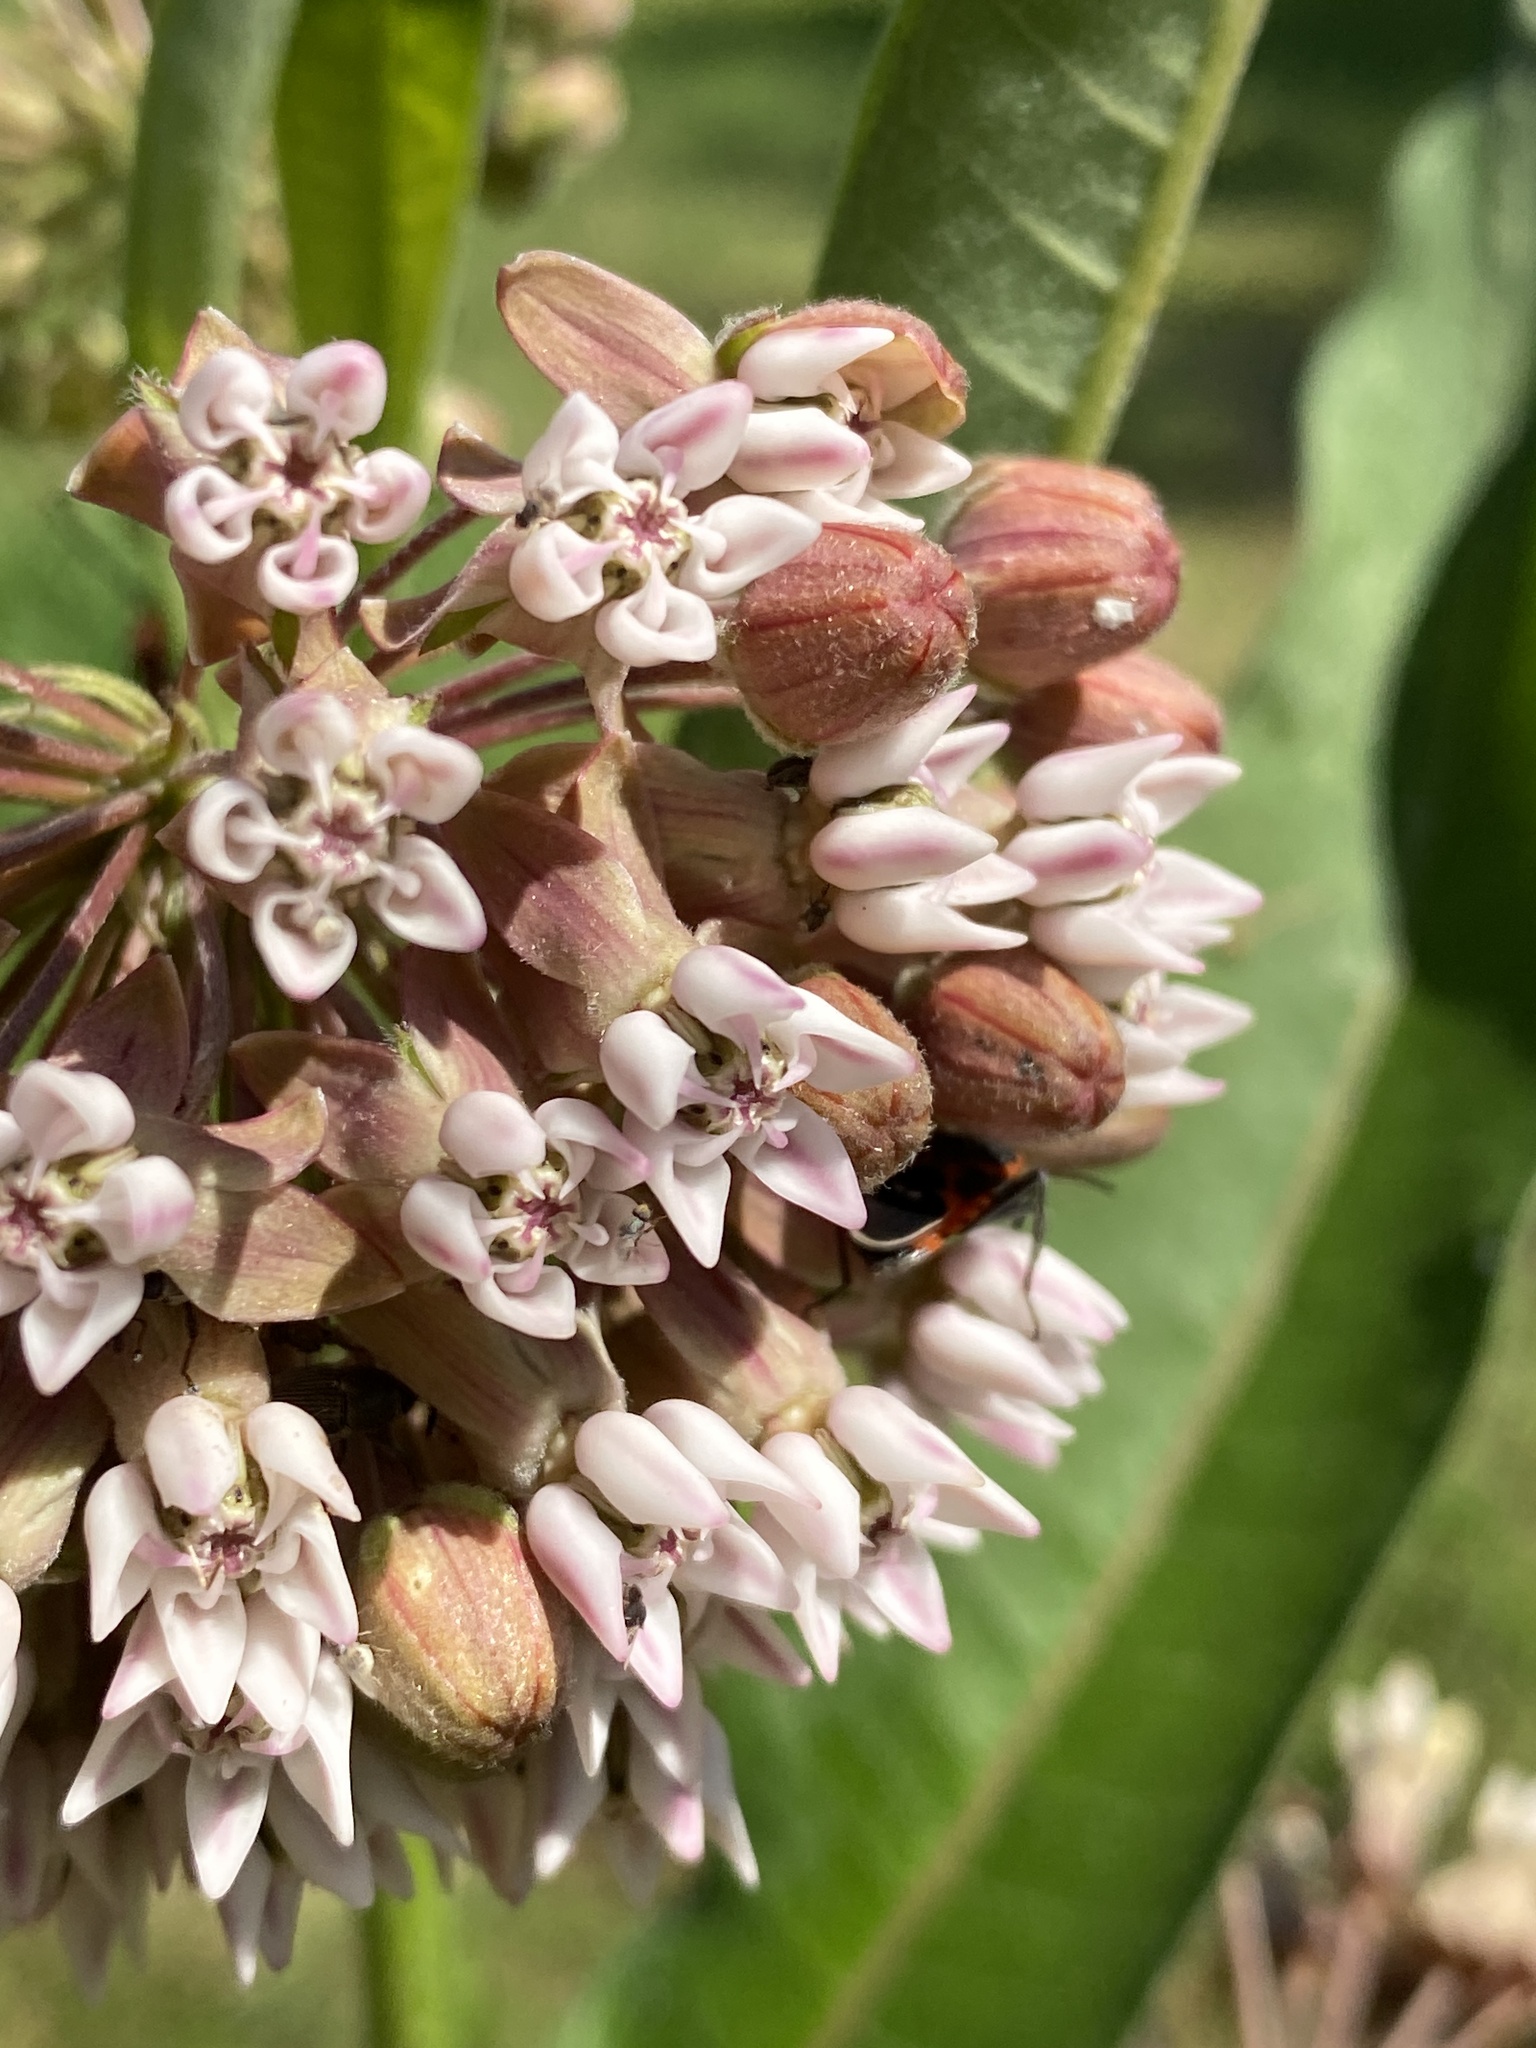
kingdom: Plantae
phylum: Tracheophyta
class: Magnoliopsida
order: Gentianales
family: Apocynaceae
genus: Asclepias
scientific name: Asclepias syriaca
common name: Common milkweed
